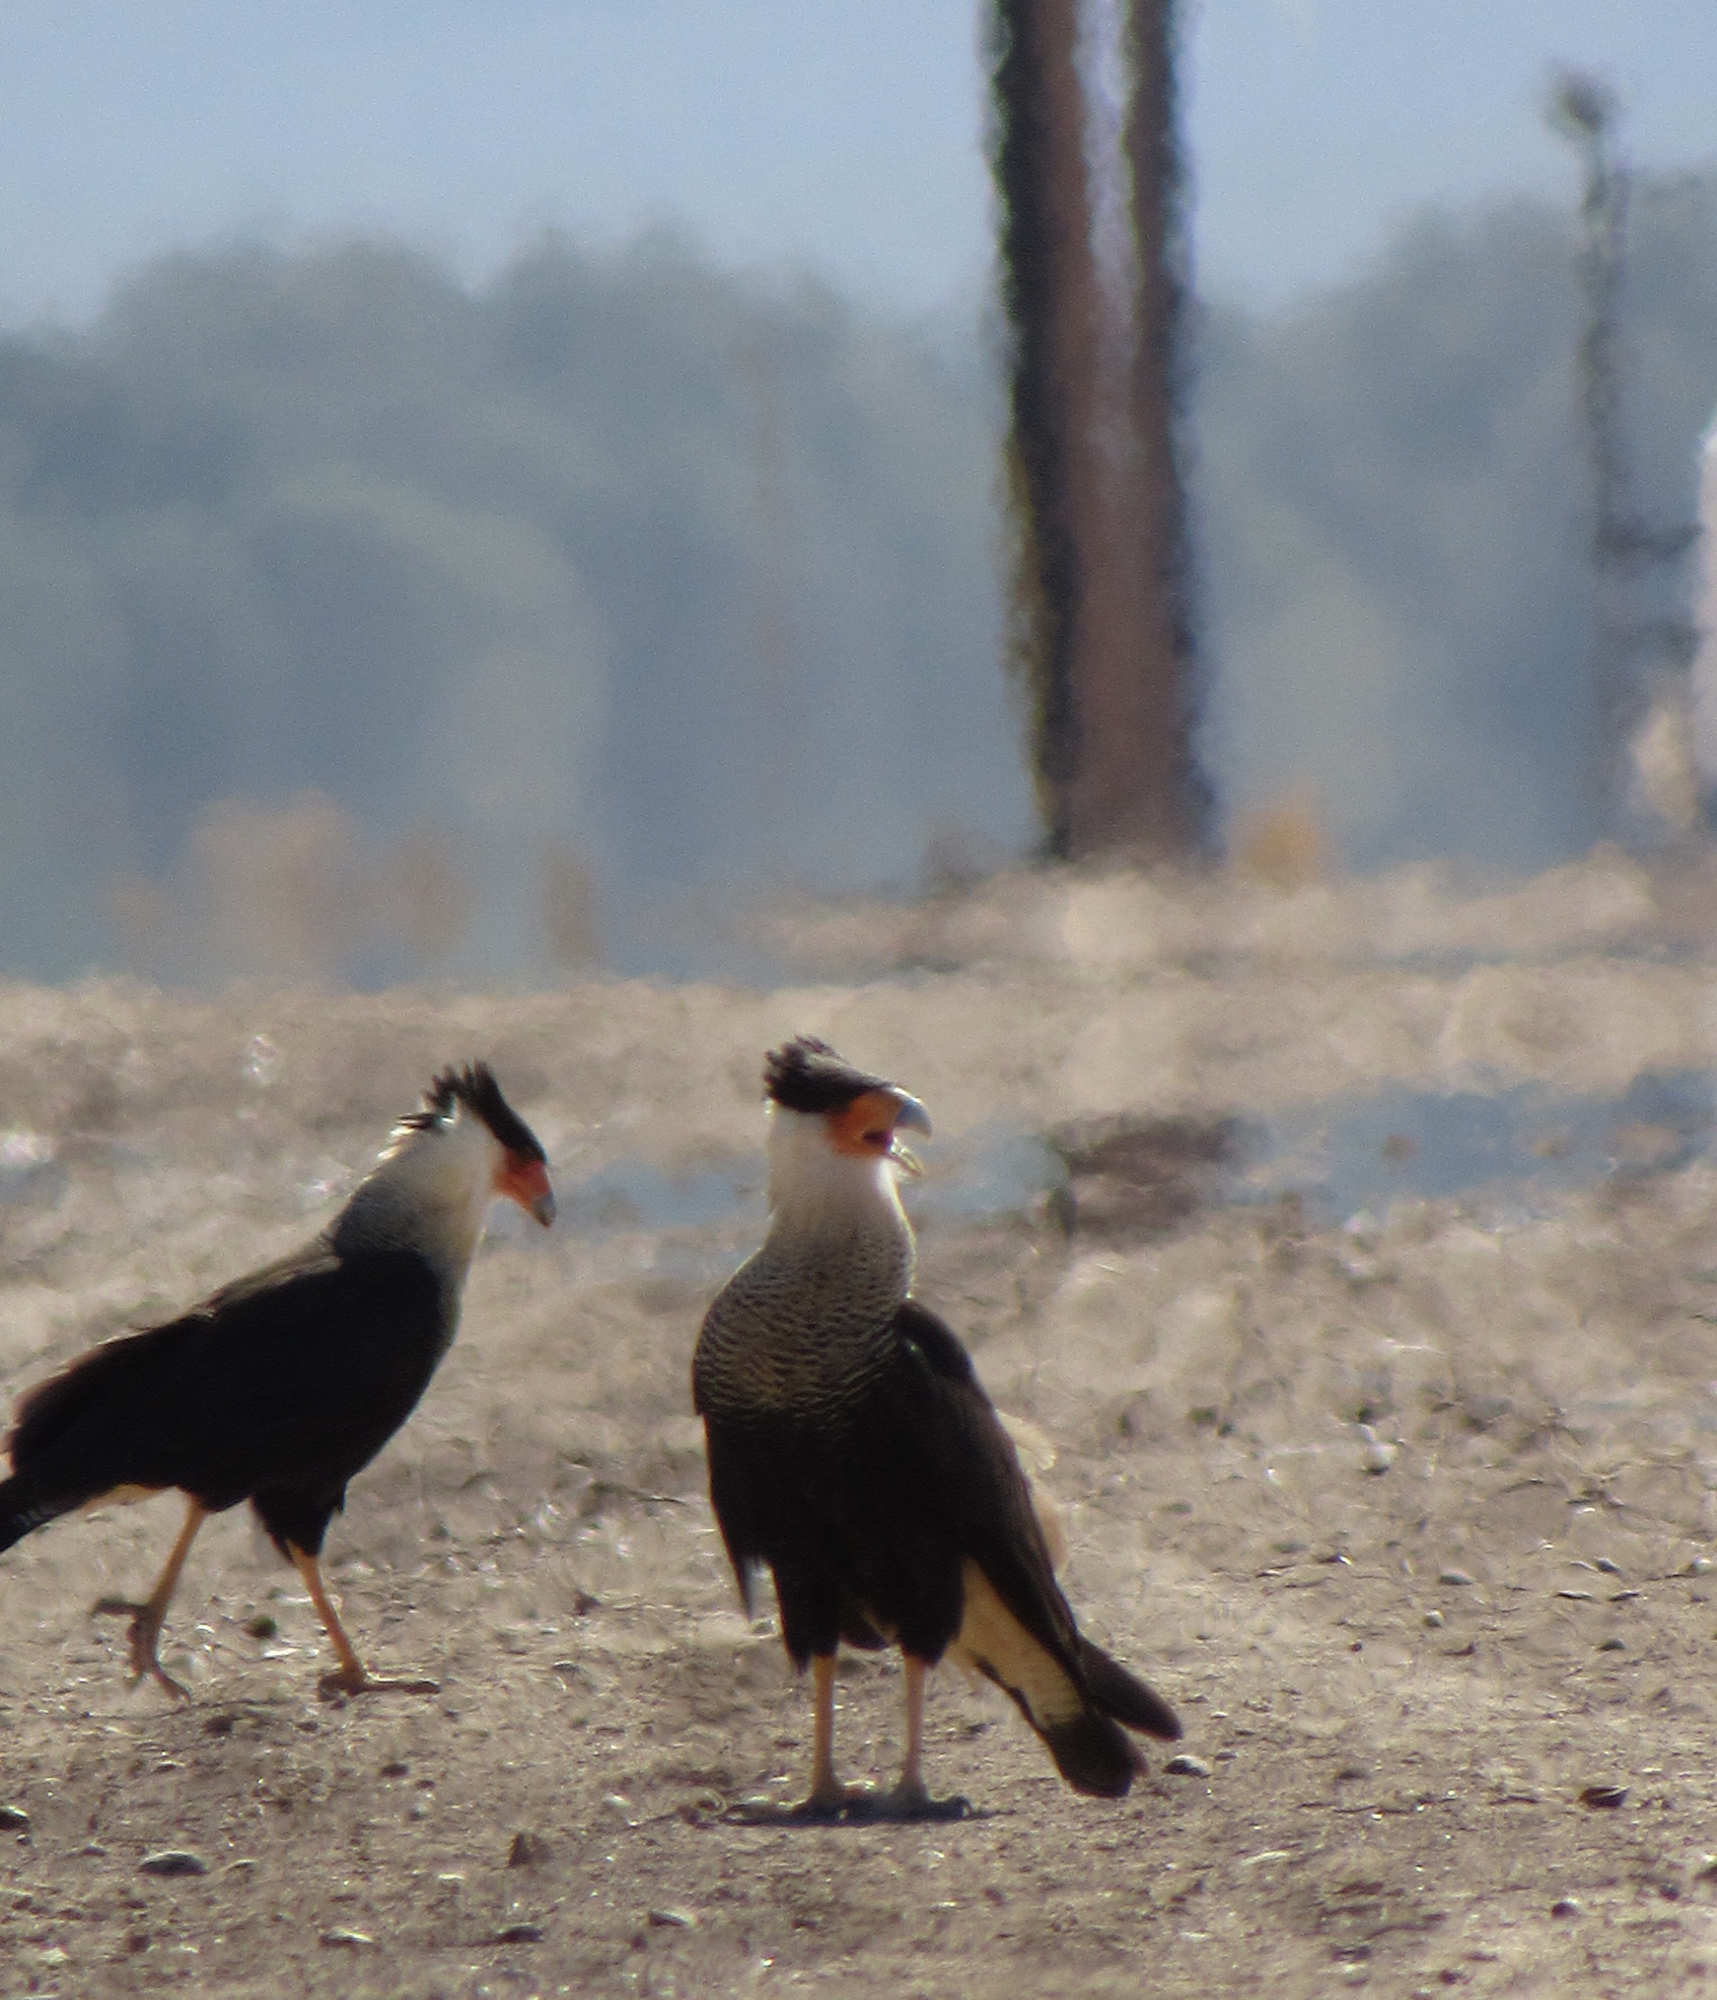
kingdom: Animalia
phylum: Chordata
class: Aves
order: Falconiformes
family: Falconidae
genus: Caracara
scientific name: Caracara plancus
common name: Southern caracara
